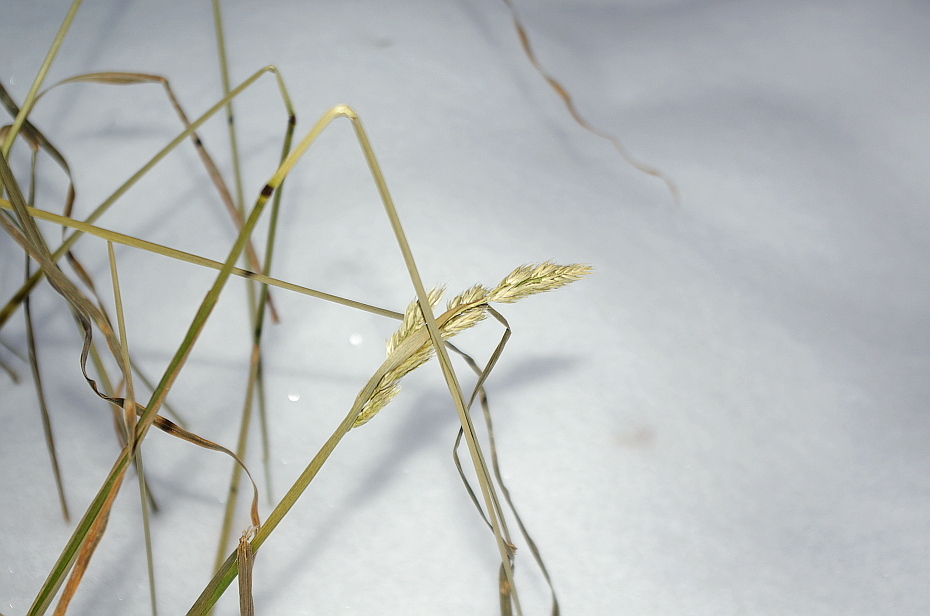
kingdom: Plantae
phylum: Tracheophyta
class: Liliopsida
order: Poales
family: Poaceae
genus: Dactylis
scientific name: Dactylis glomerata
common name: Orchardgrass
